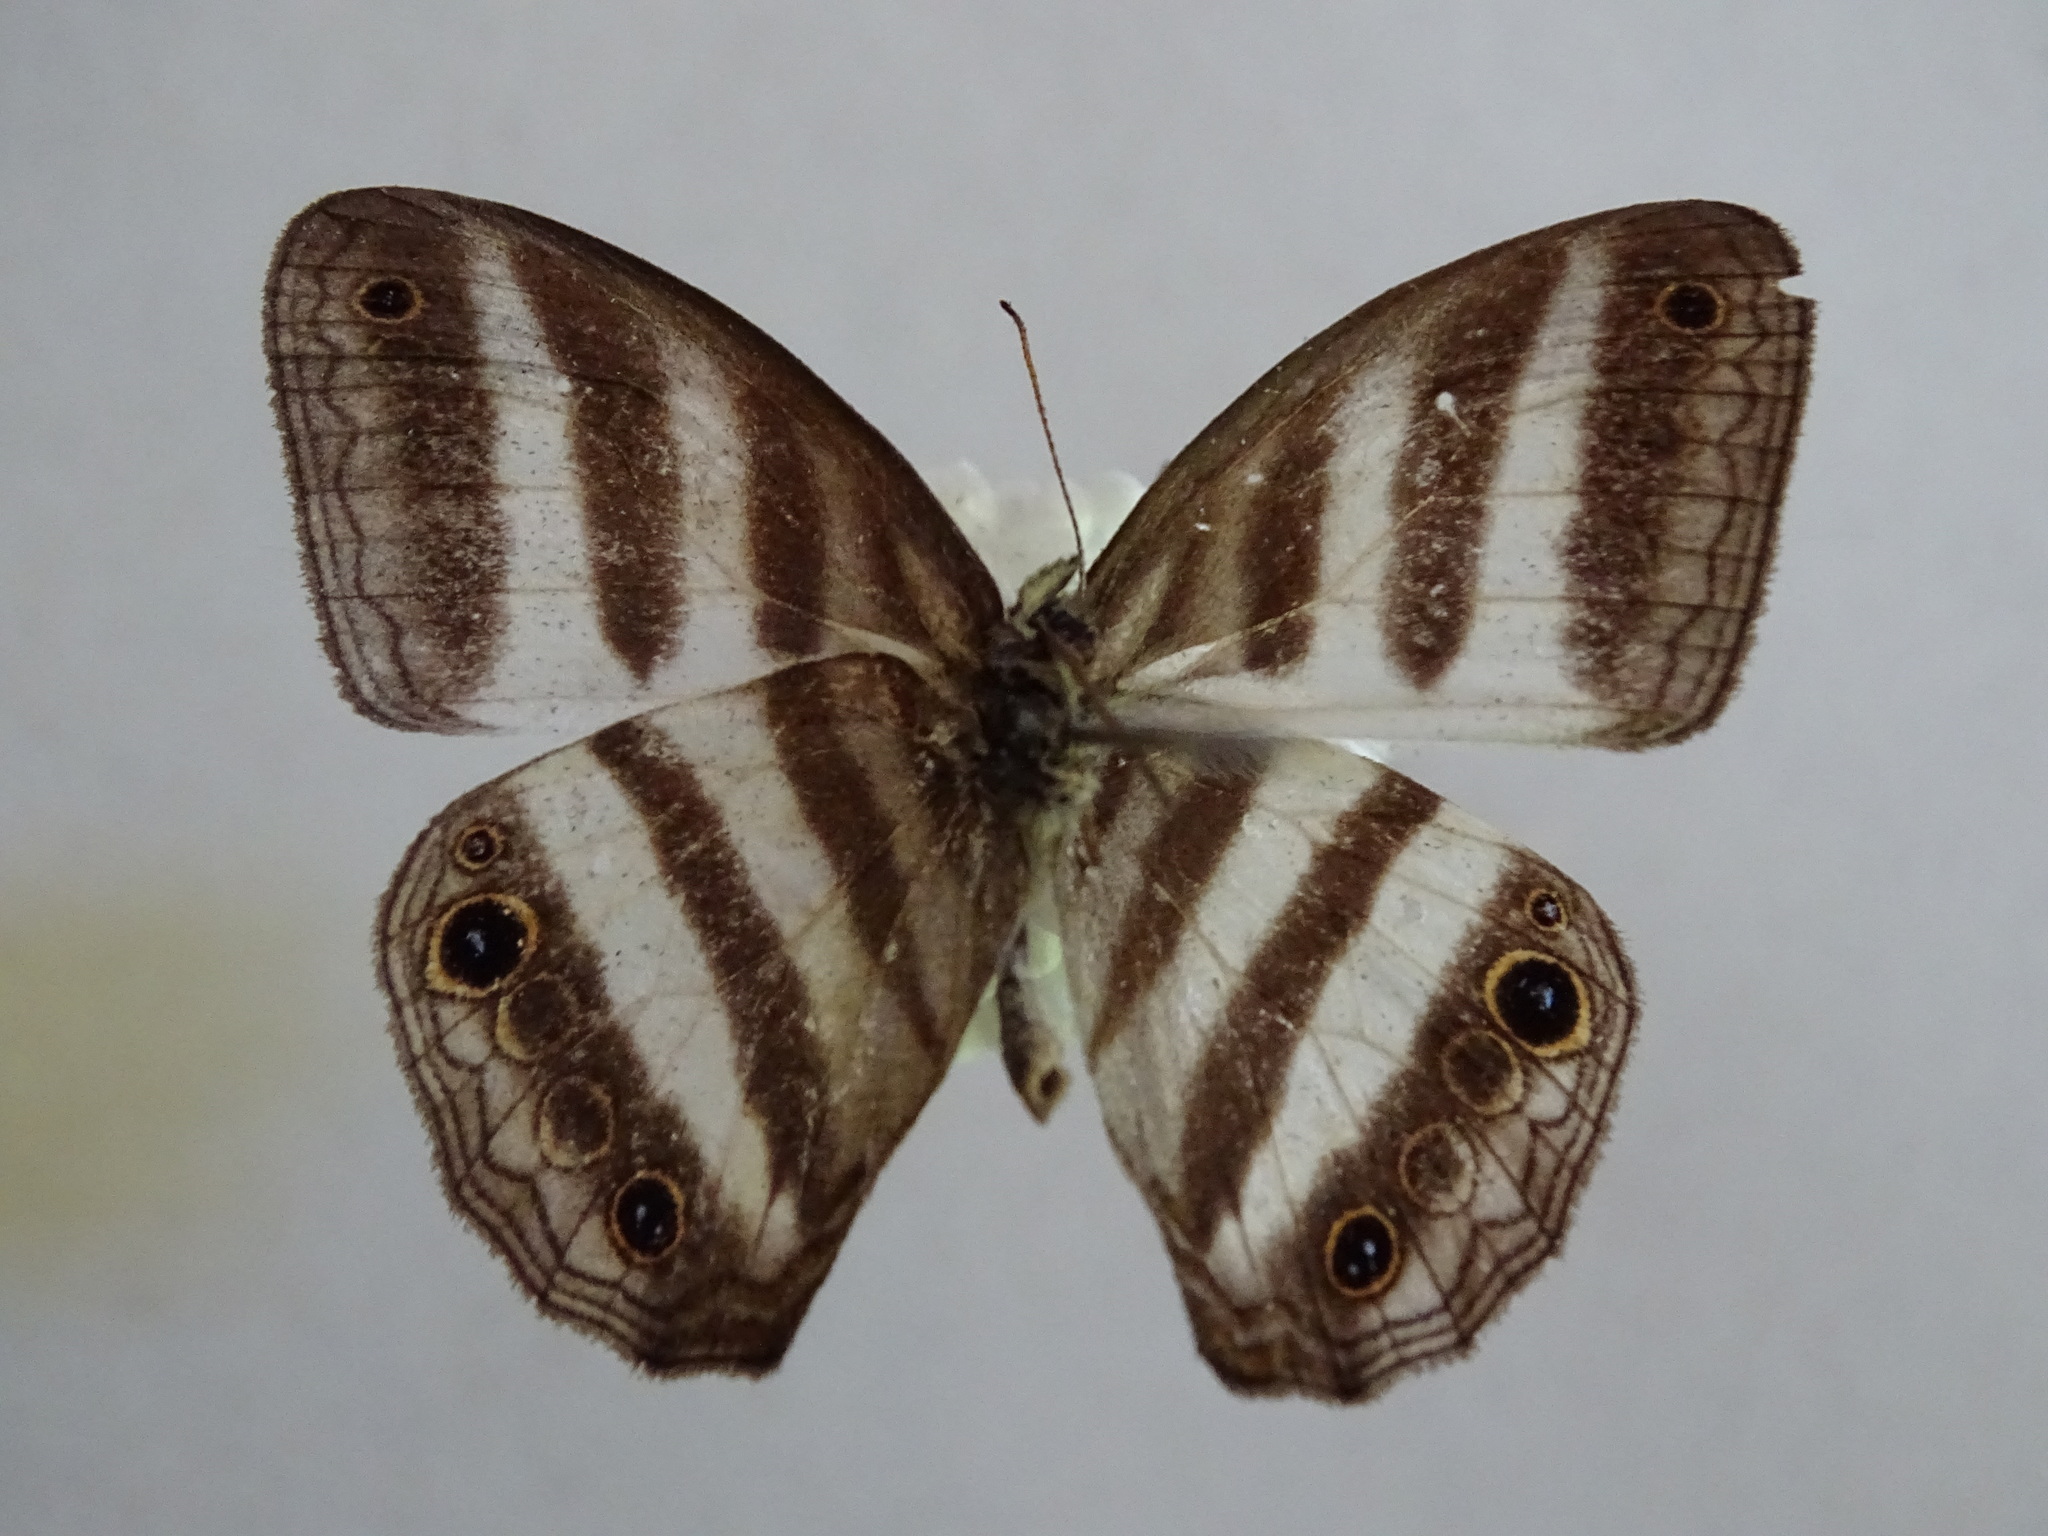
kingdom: Animalia
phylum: Arthropoda
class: Insecta
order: Lepidoptera
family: Nymphalidae
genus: Pareuptychia
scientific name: Pareuptychia hesione
